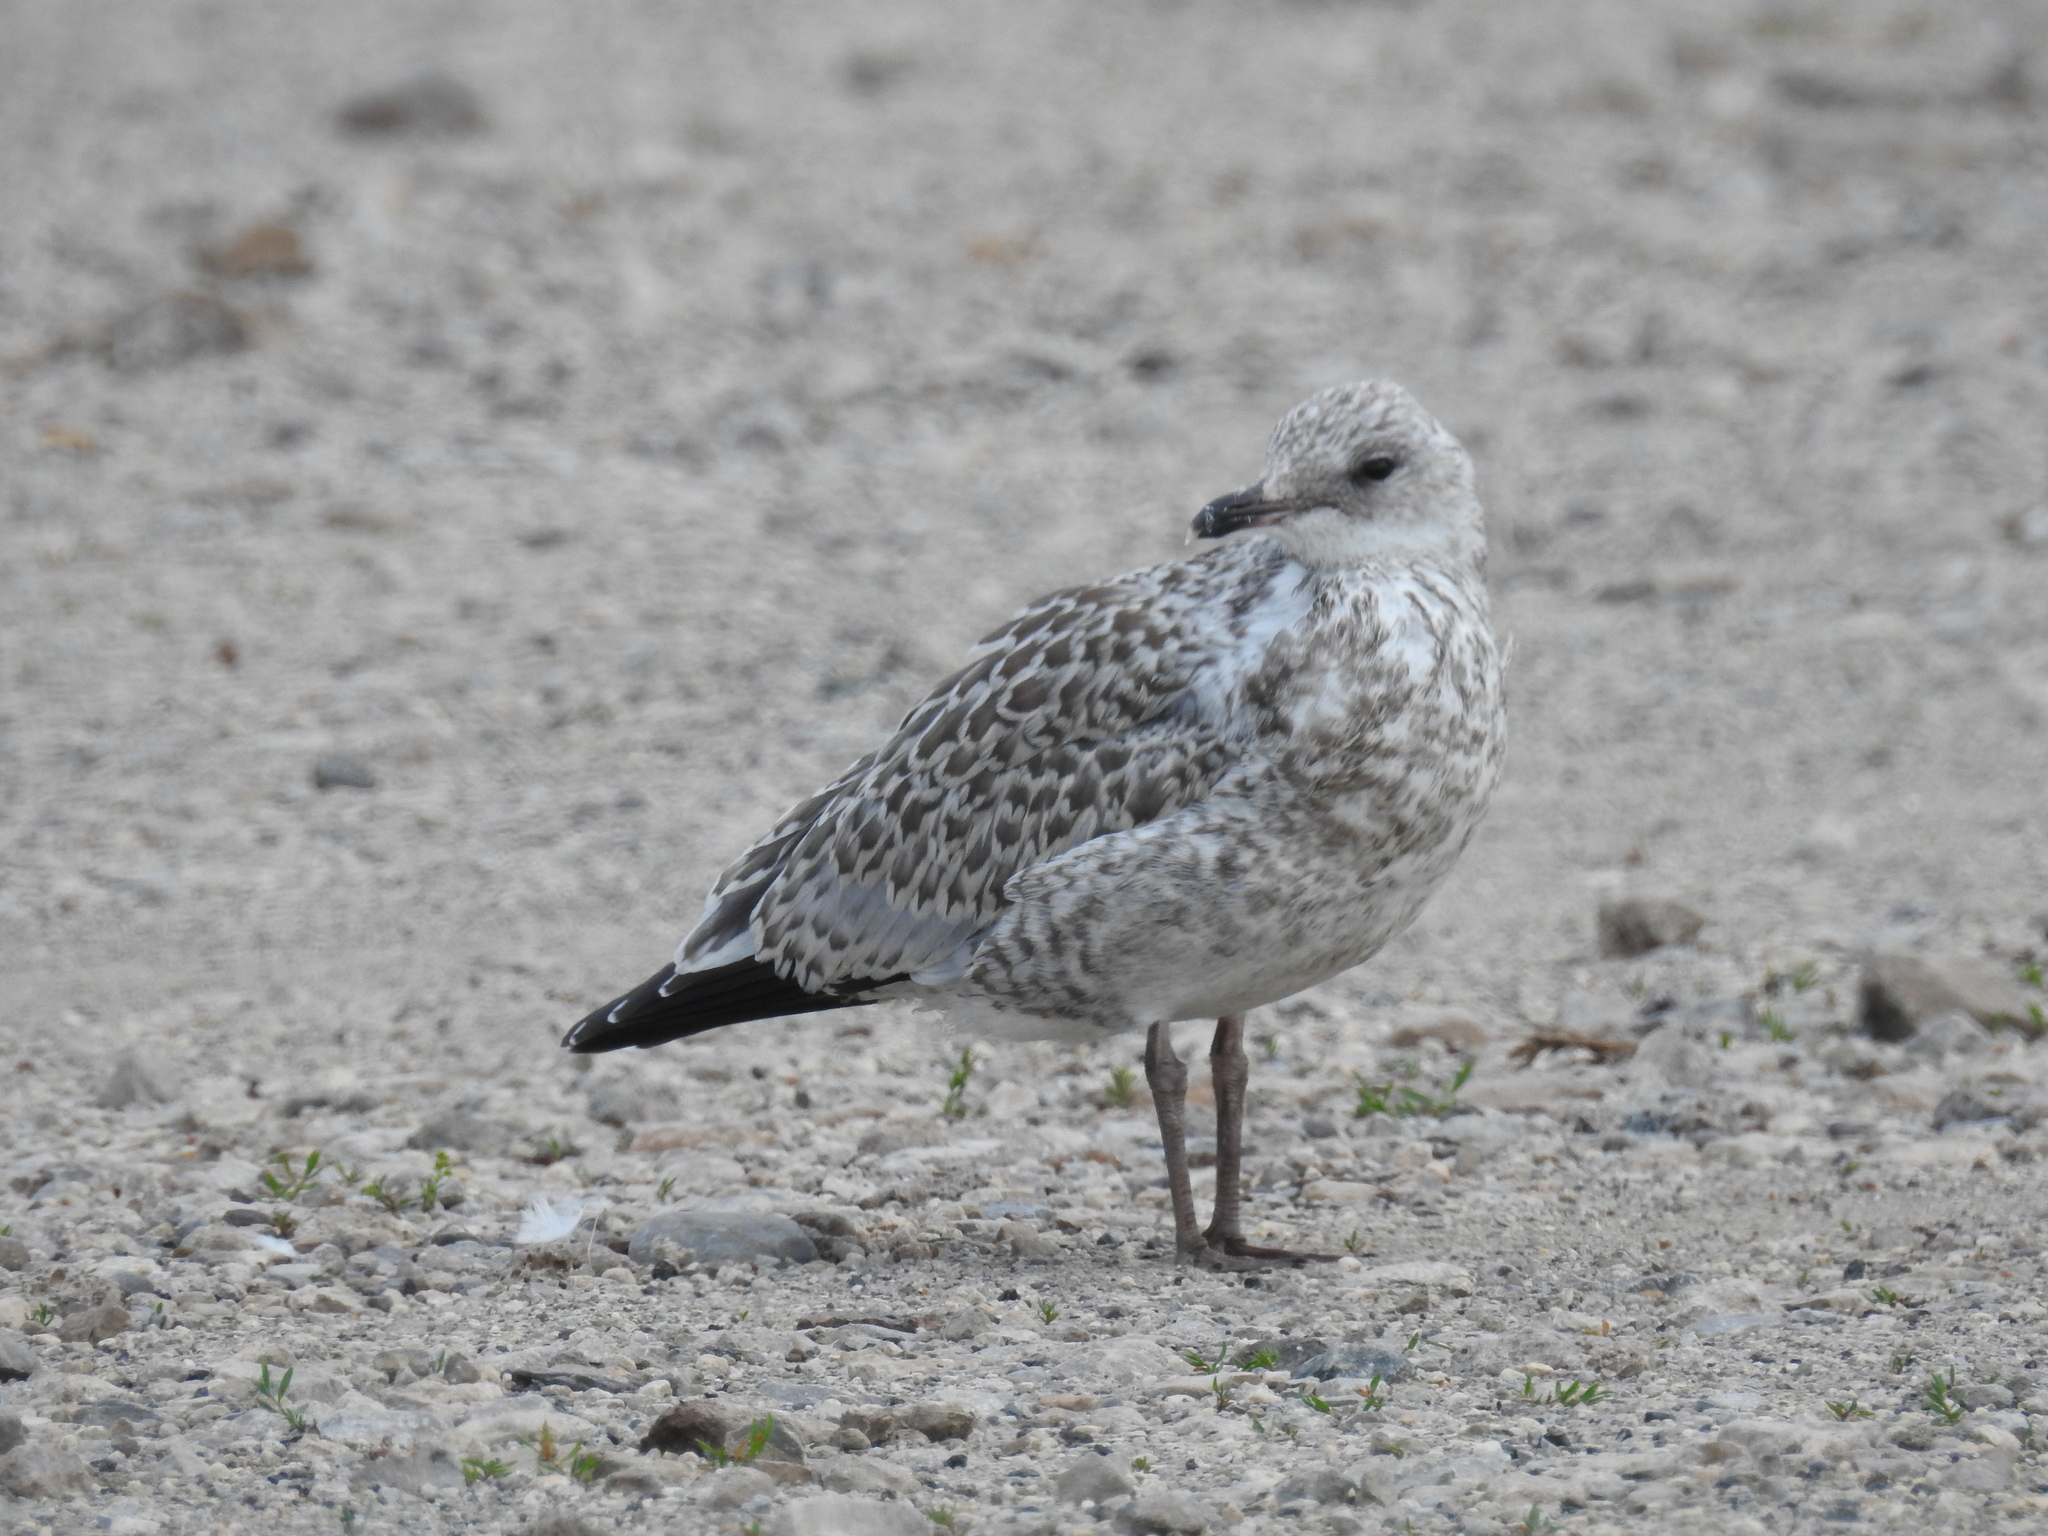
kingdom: Animalia
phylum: Chordata
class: Aves
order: Charadriiformes
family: Laridae
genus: Larus
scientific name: Larus delawarensis
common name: Ring-billed gull
